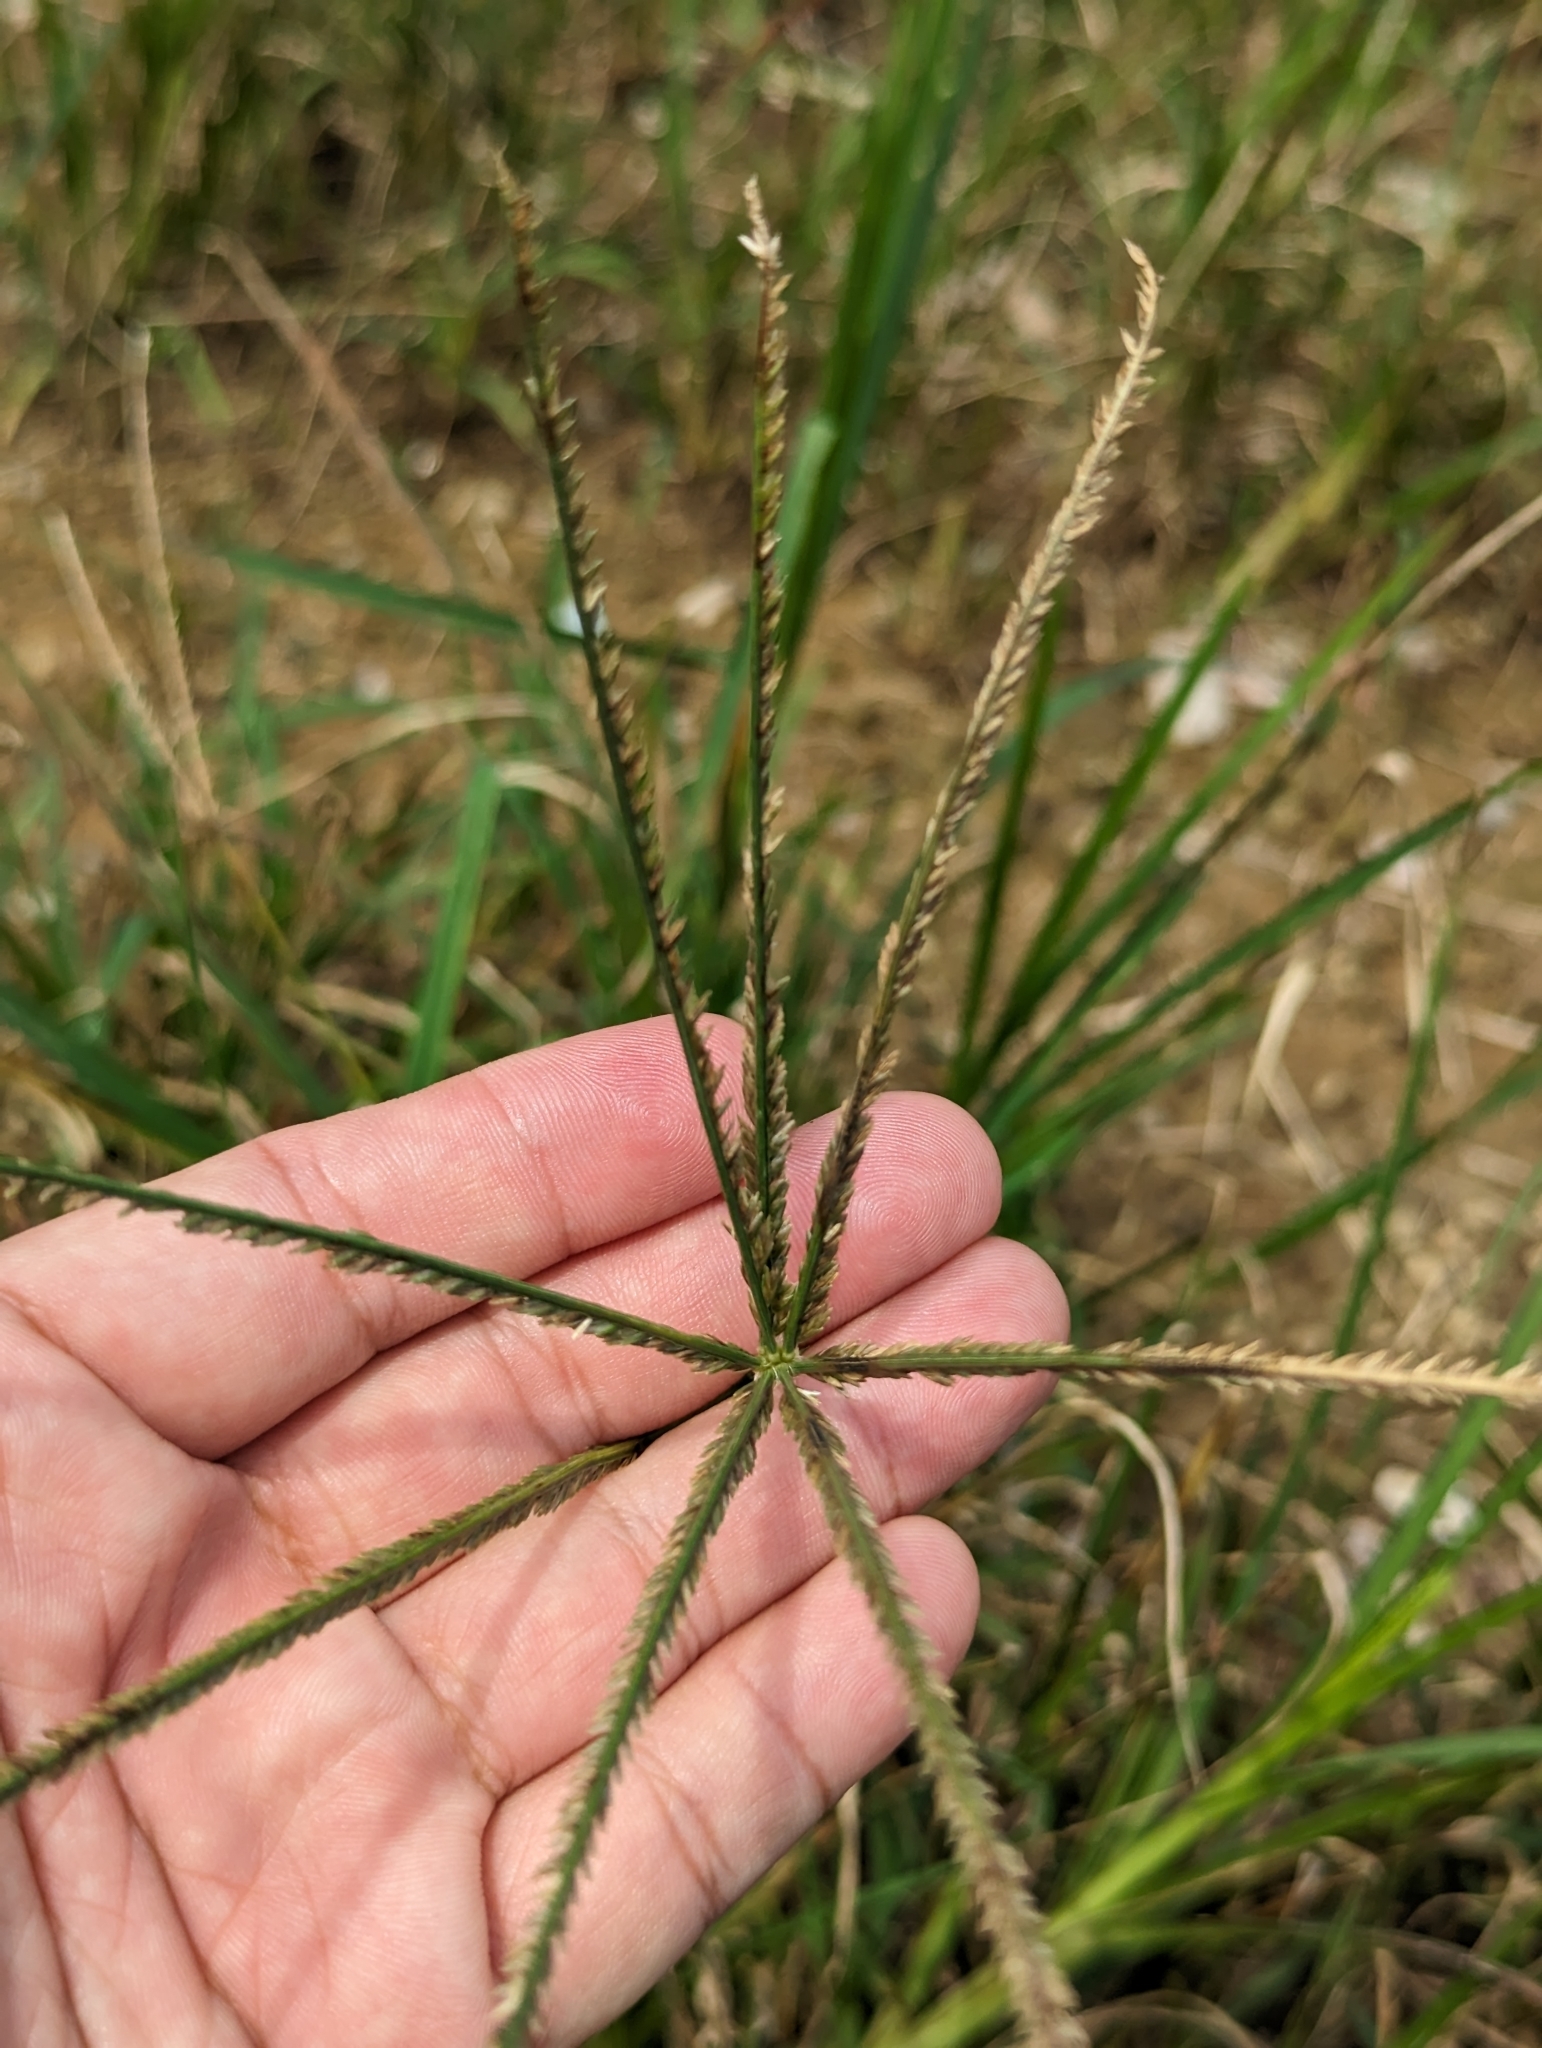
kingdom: Plantae
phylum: Tracheophyta
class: Liliopsida
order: Poales
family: Poaceae
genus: Eleusine
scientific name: Eleusine indica
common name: Yard-grass
